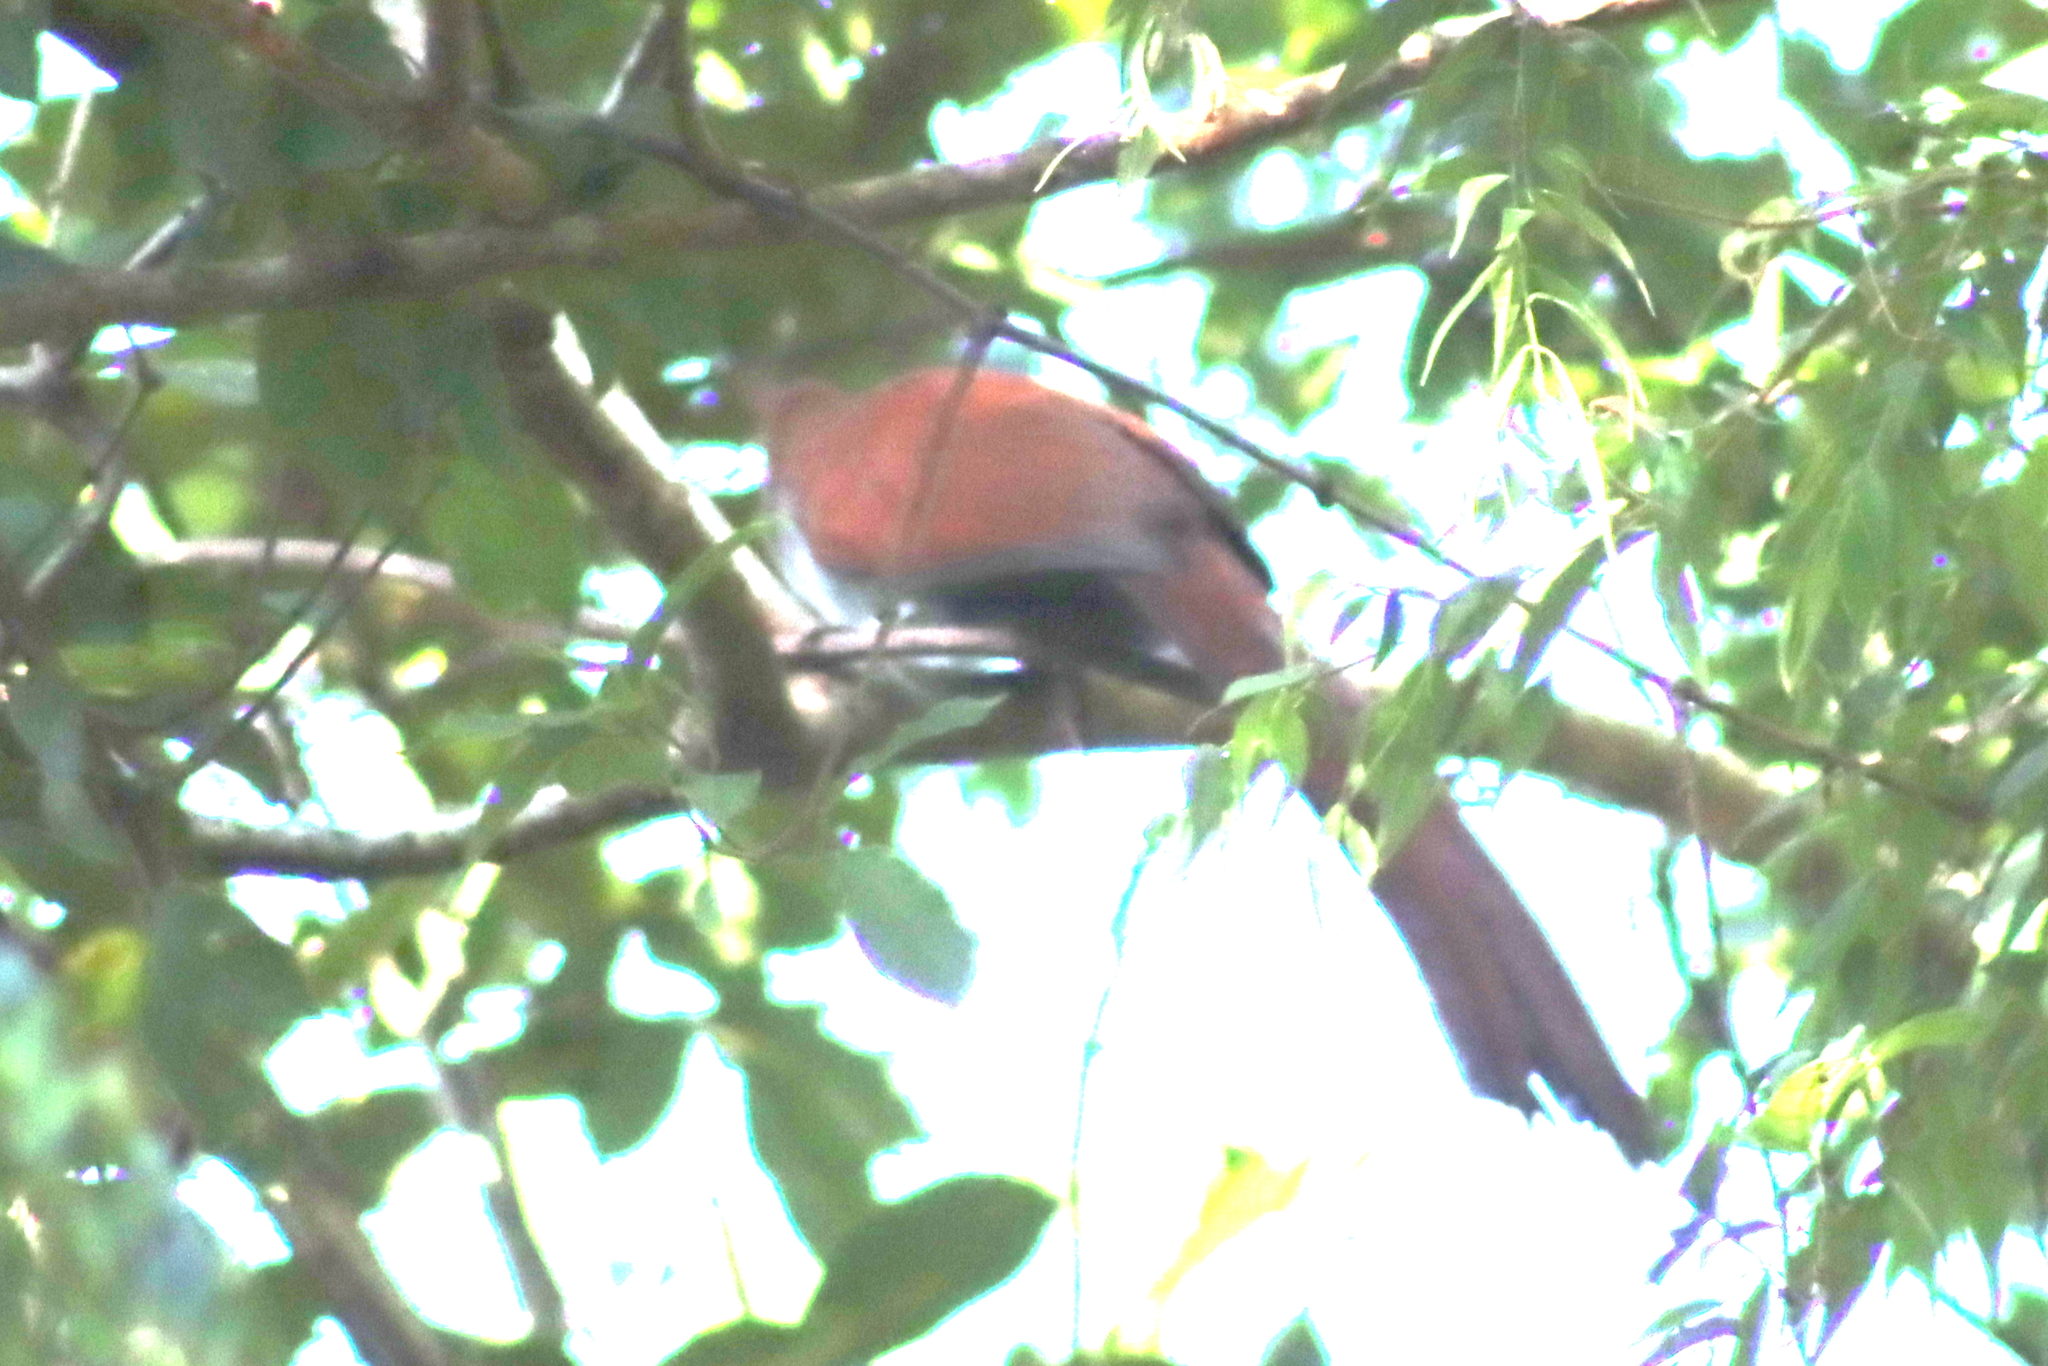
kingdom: Animalia
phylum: Chordata
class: Aves
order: Cuculiformes
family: Cuculidae
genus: Piaya
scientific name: Piaya cayana
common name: Squirrel cuckoo
